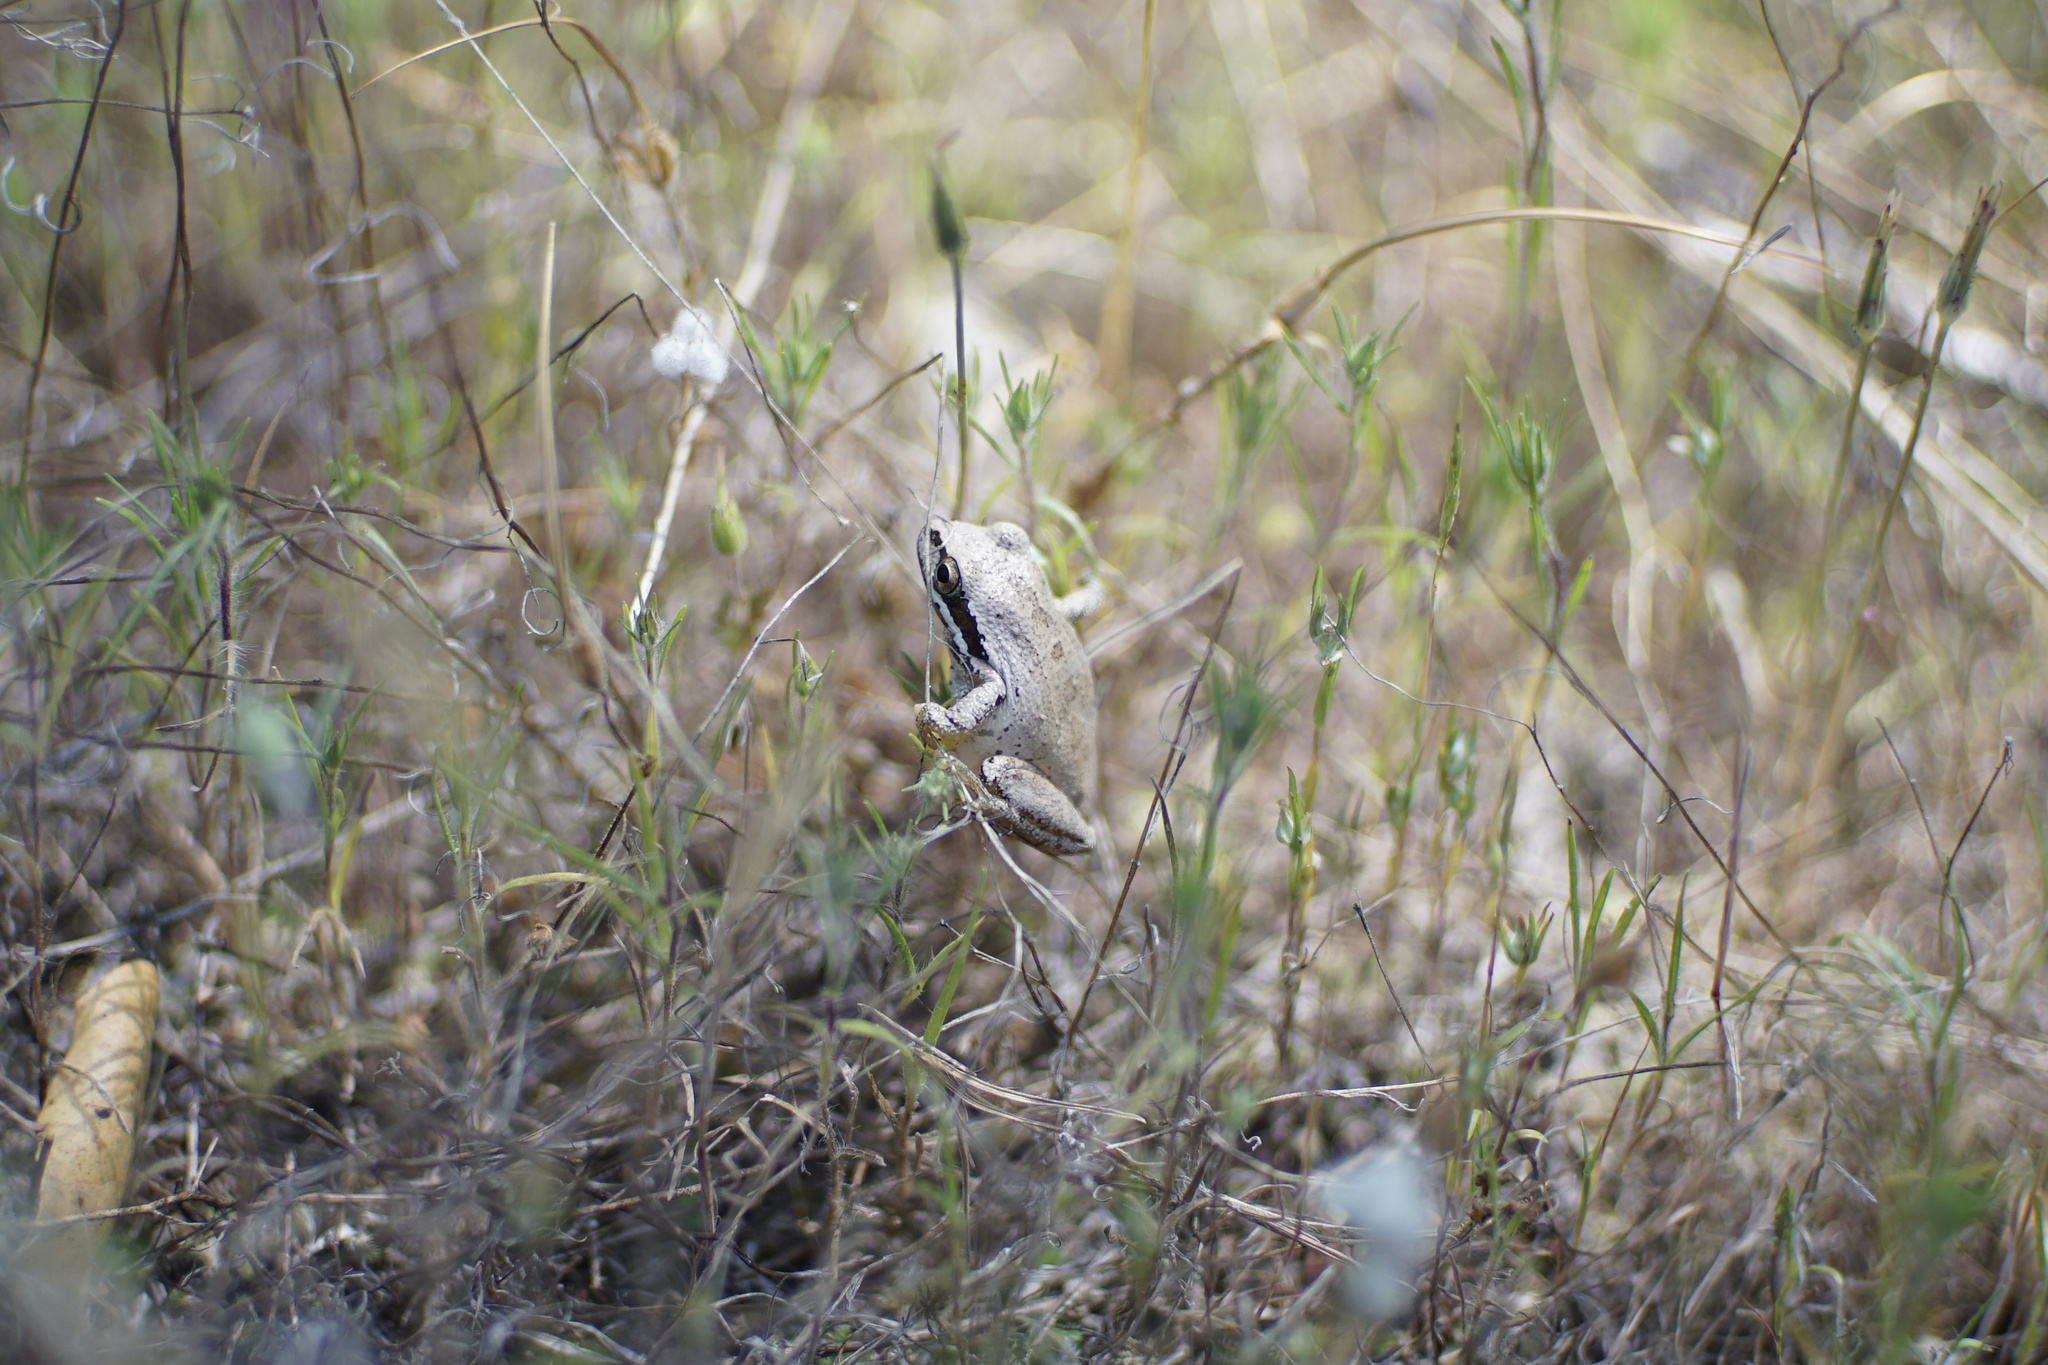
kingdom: Animalia
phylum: Chordata
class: Amphibia
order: Anura
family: Hylidae
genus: Pseudacris
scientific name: Pseudacris regilla
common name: Pacific chorus frog
